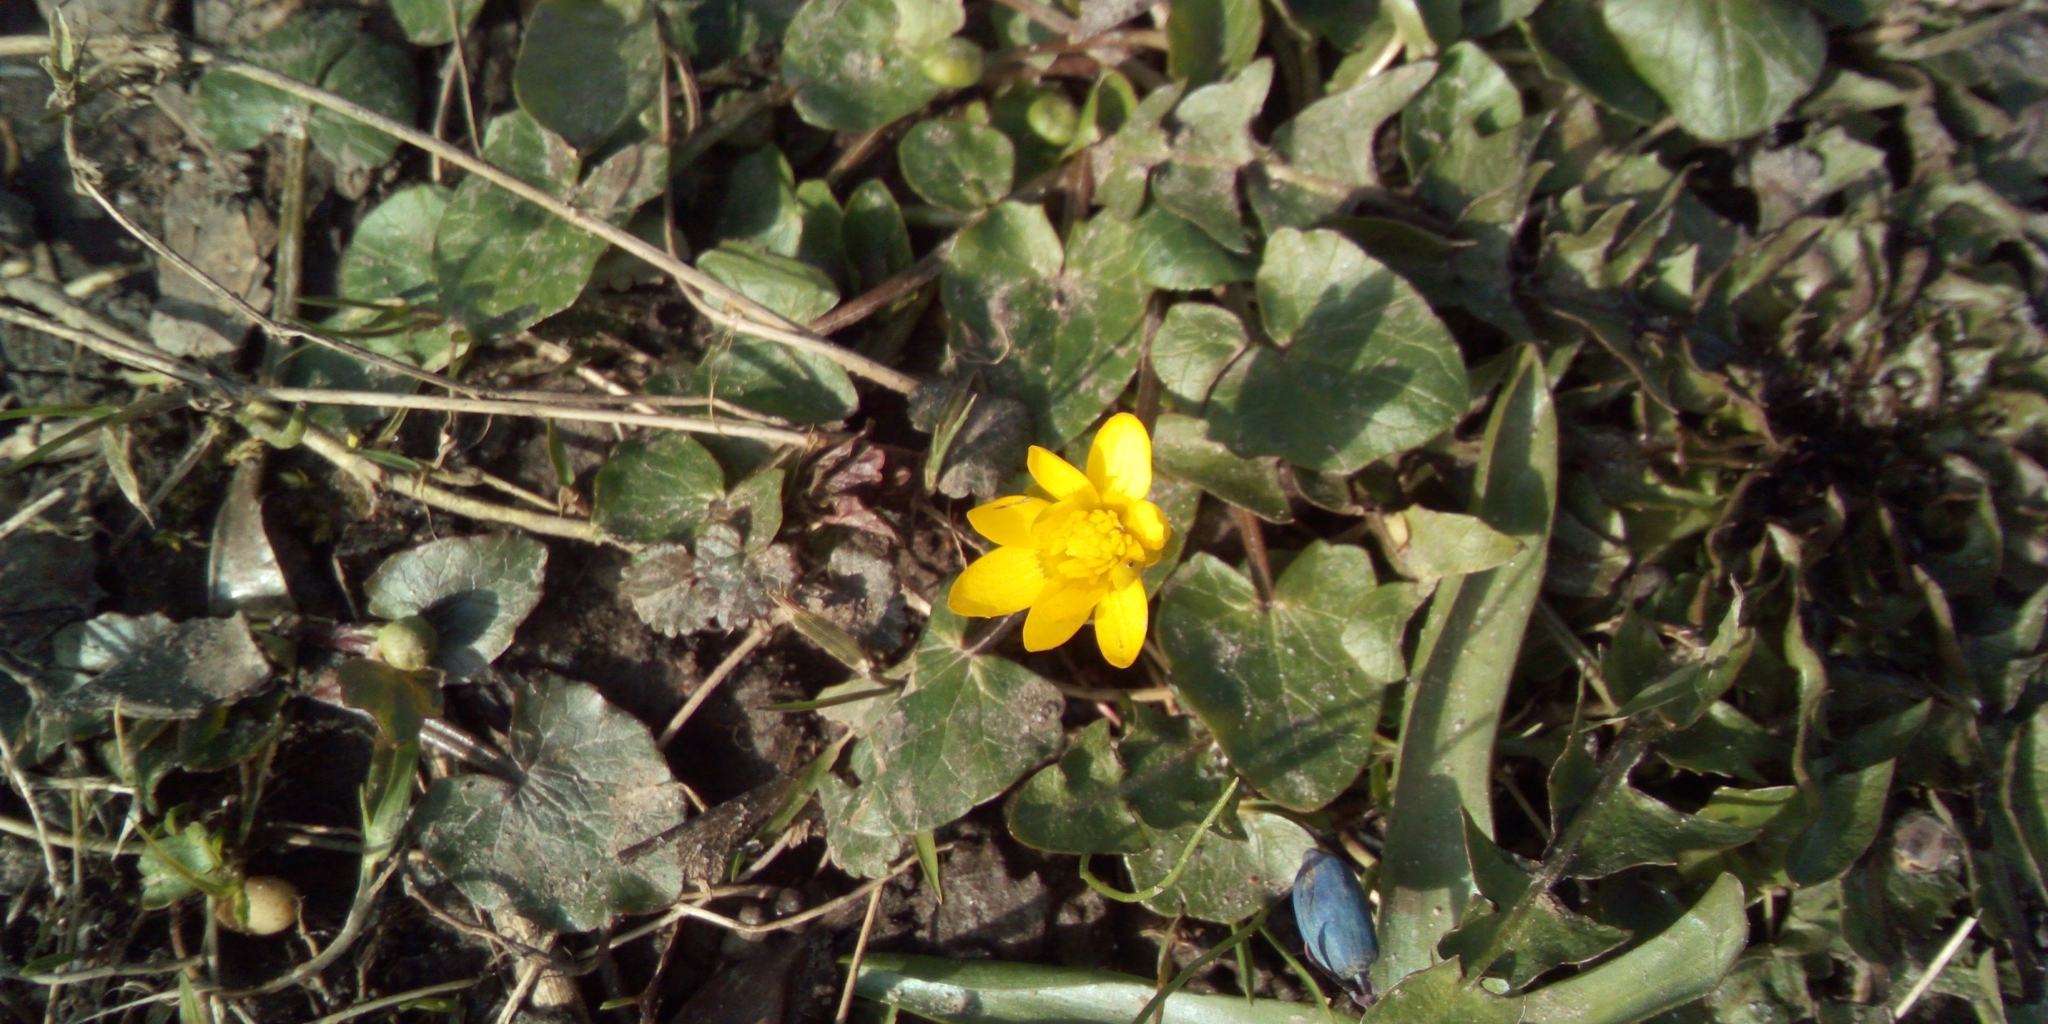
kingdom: Plantae
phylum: Tracheophyta
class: Magnoliopsida
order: Ranunculales
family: Ranunculaceae
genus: Ficaria
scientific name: Ficaria verna
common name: Lesser celandine
